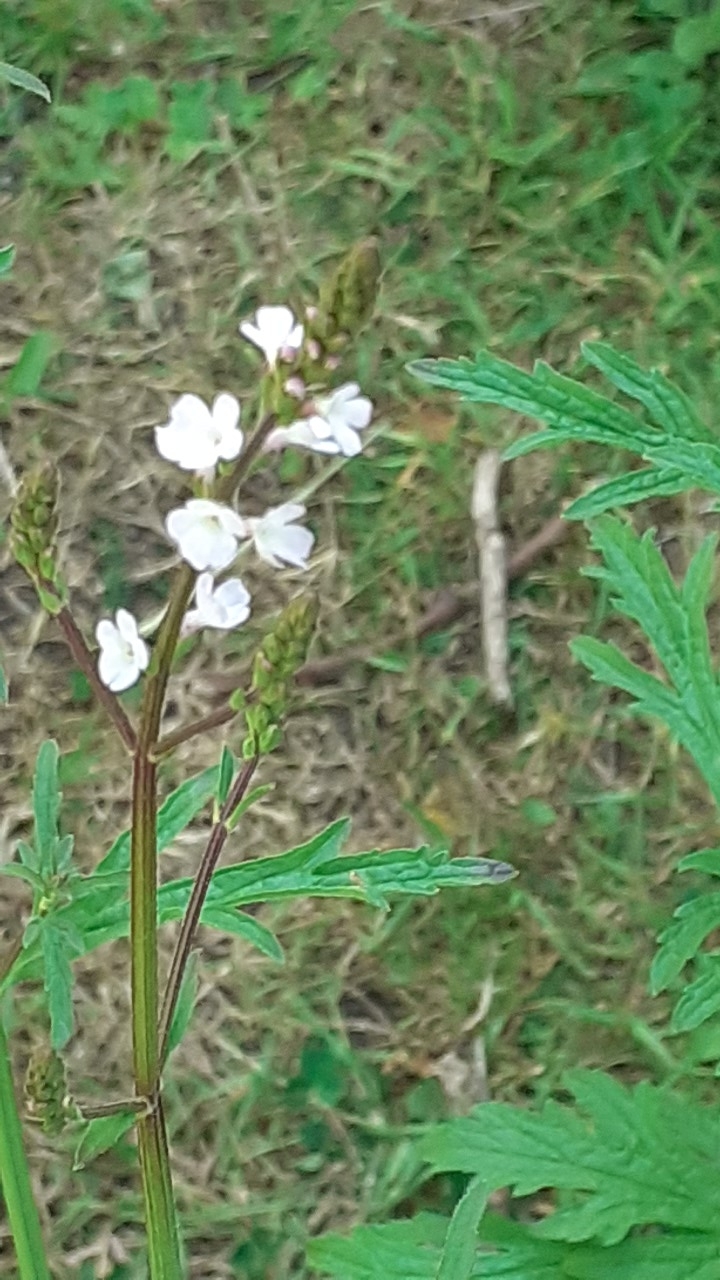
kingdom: Plantae
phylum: Tracheophyta
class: Magnoliopsida
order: Lamiales
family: Verbenaceae
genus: Verbena
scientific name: Verbena officinalis
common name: Vervain
